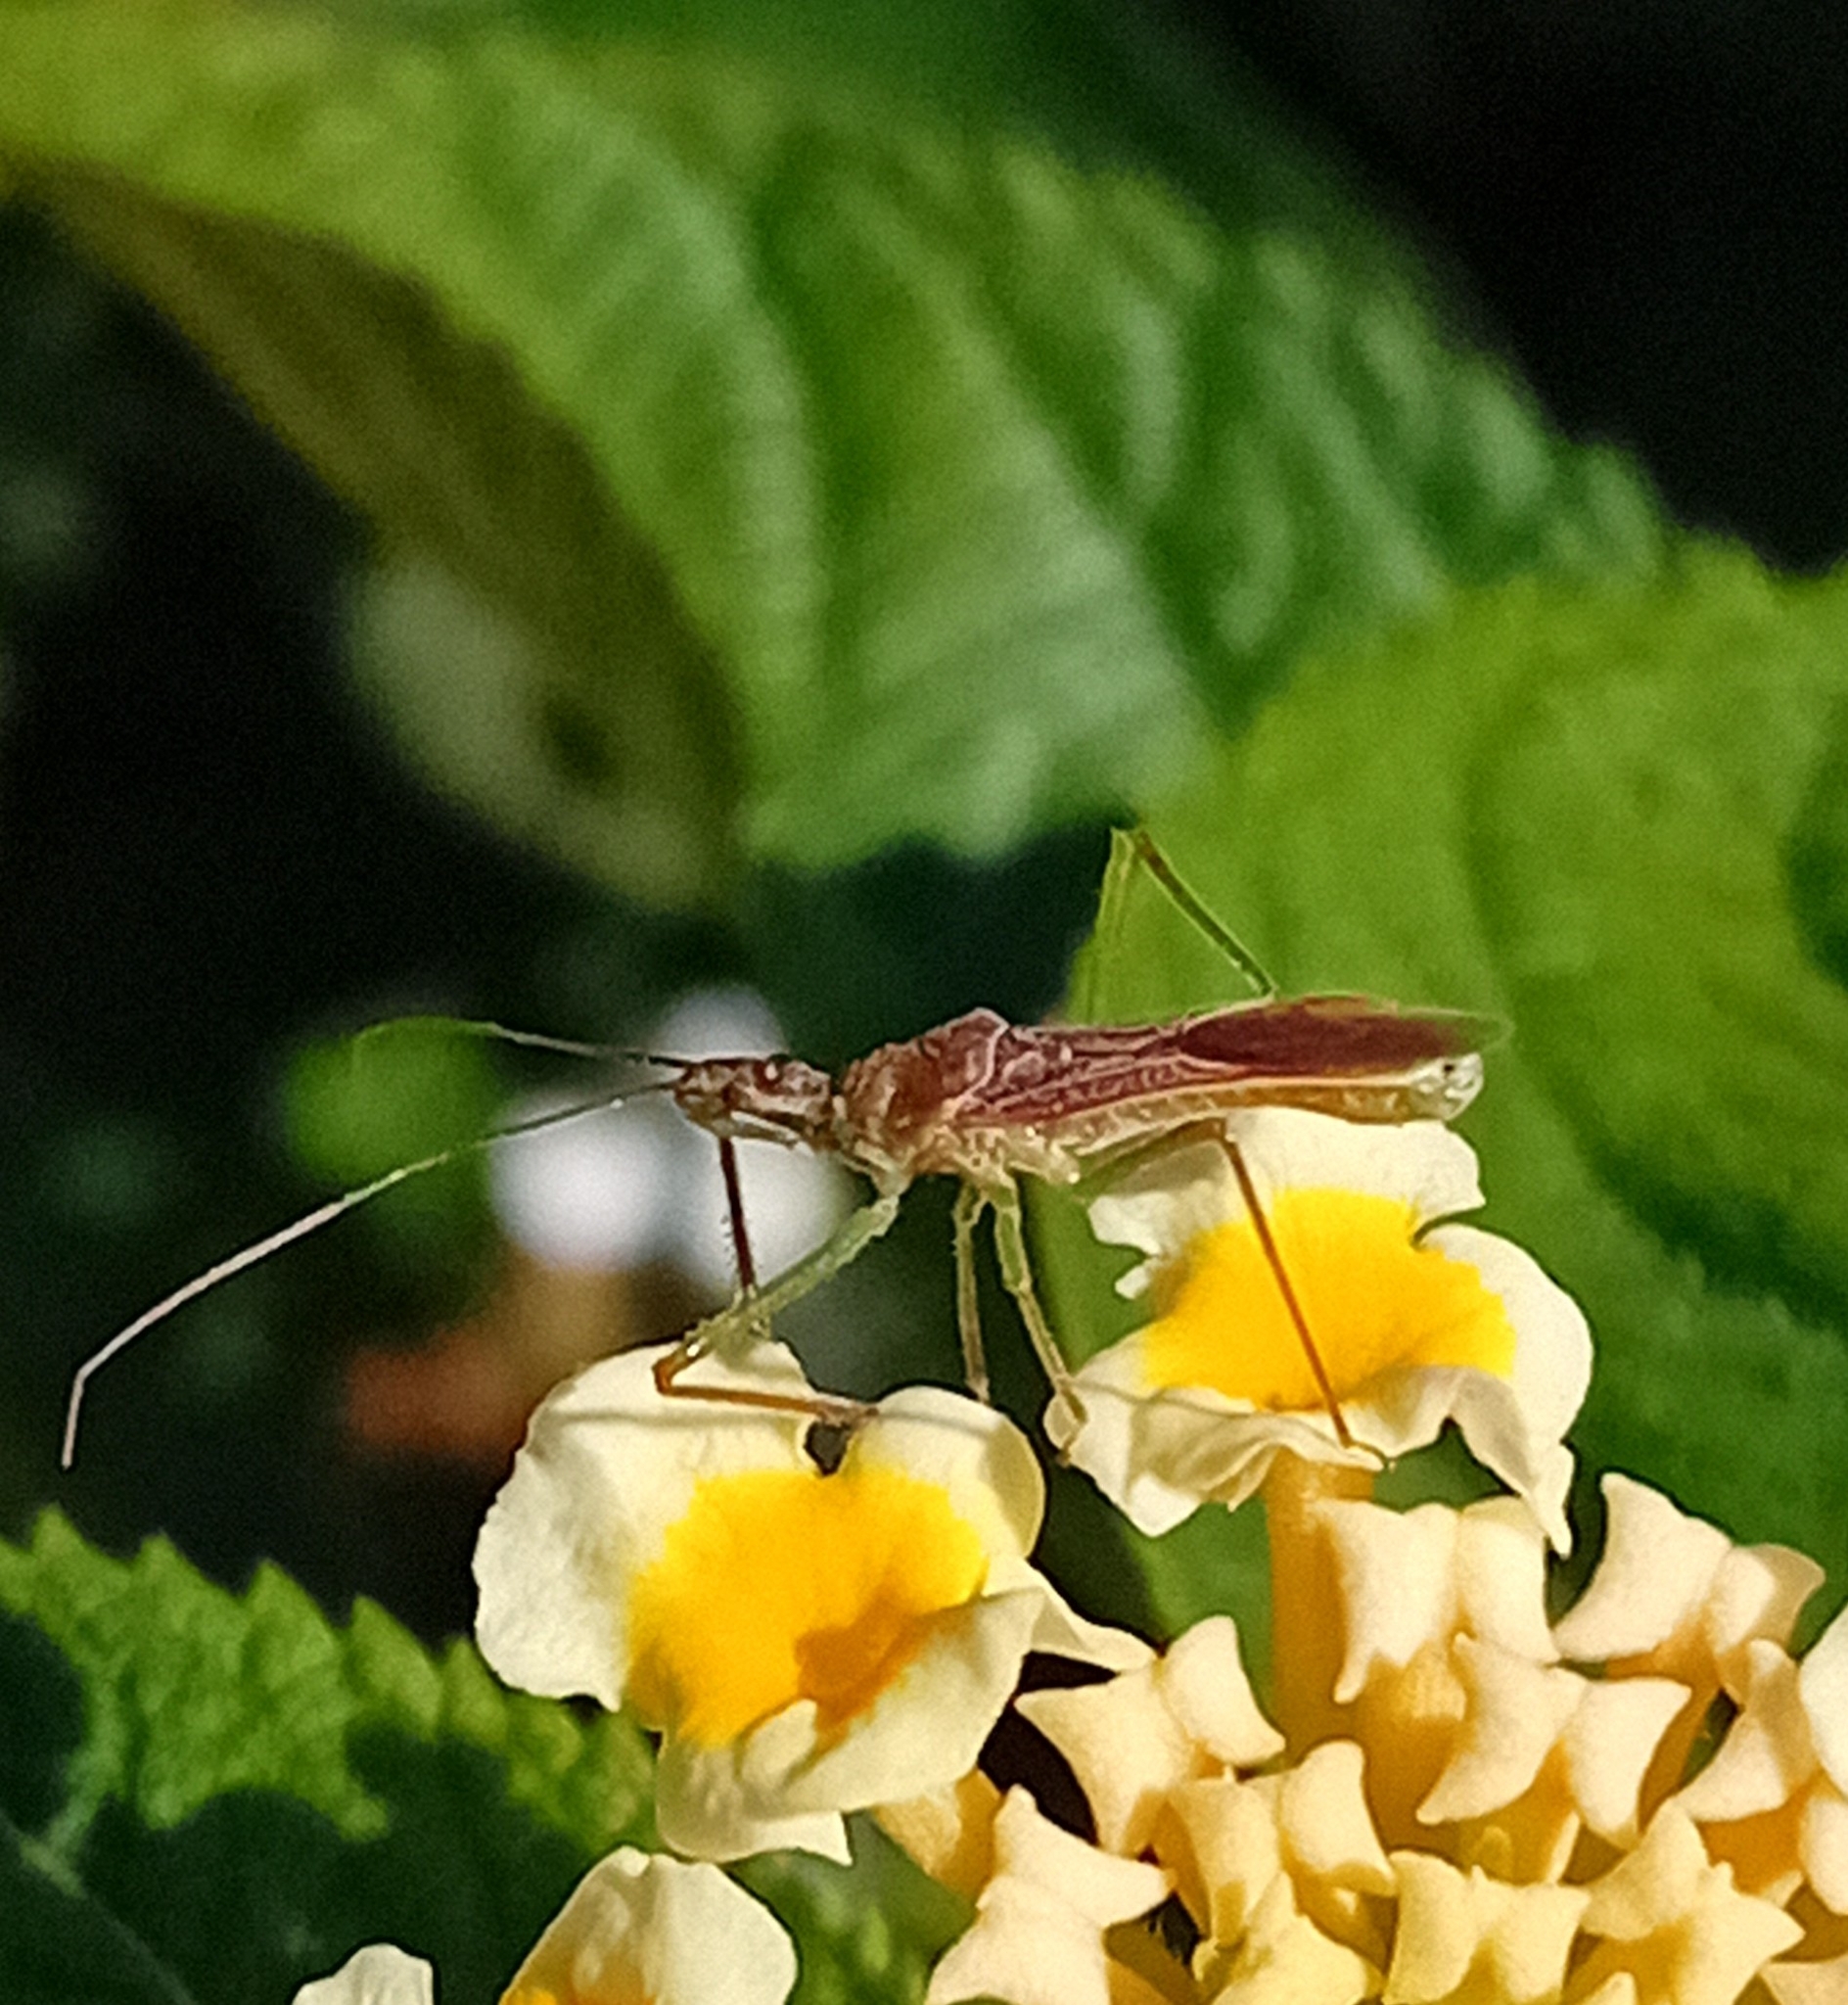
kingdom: Animalia
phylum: Arthropoda
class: Insecta
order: Hemiptera
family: Reduviidae
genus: Zelus
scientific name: Zelus renardii
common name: Assassin bug
